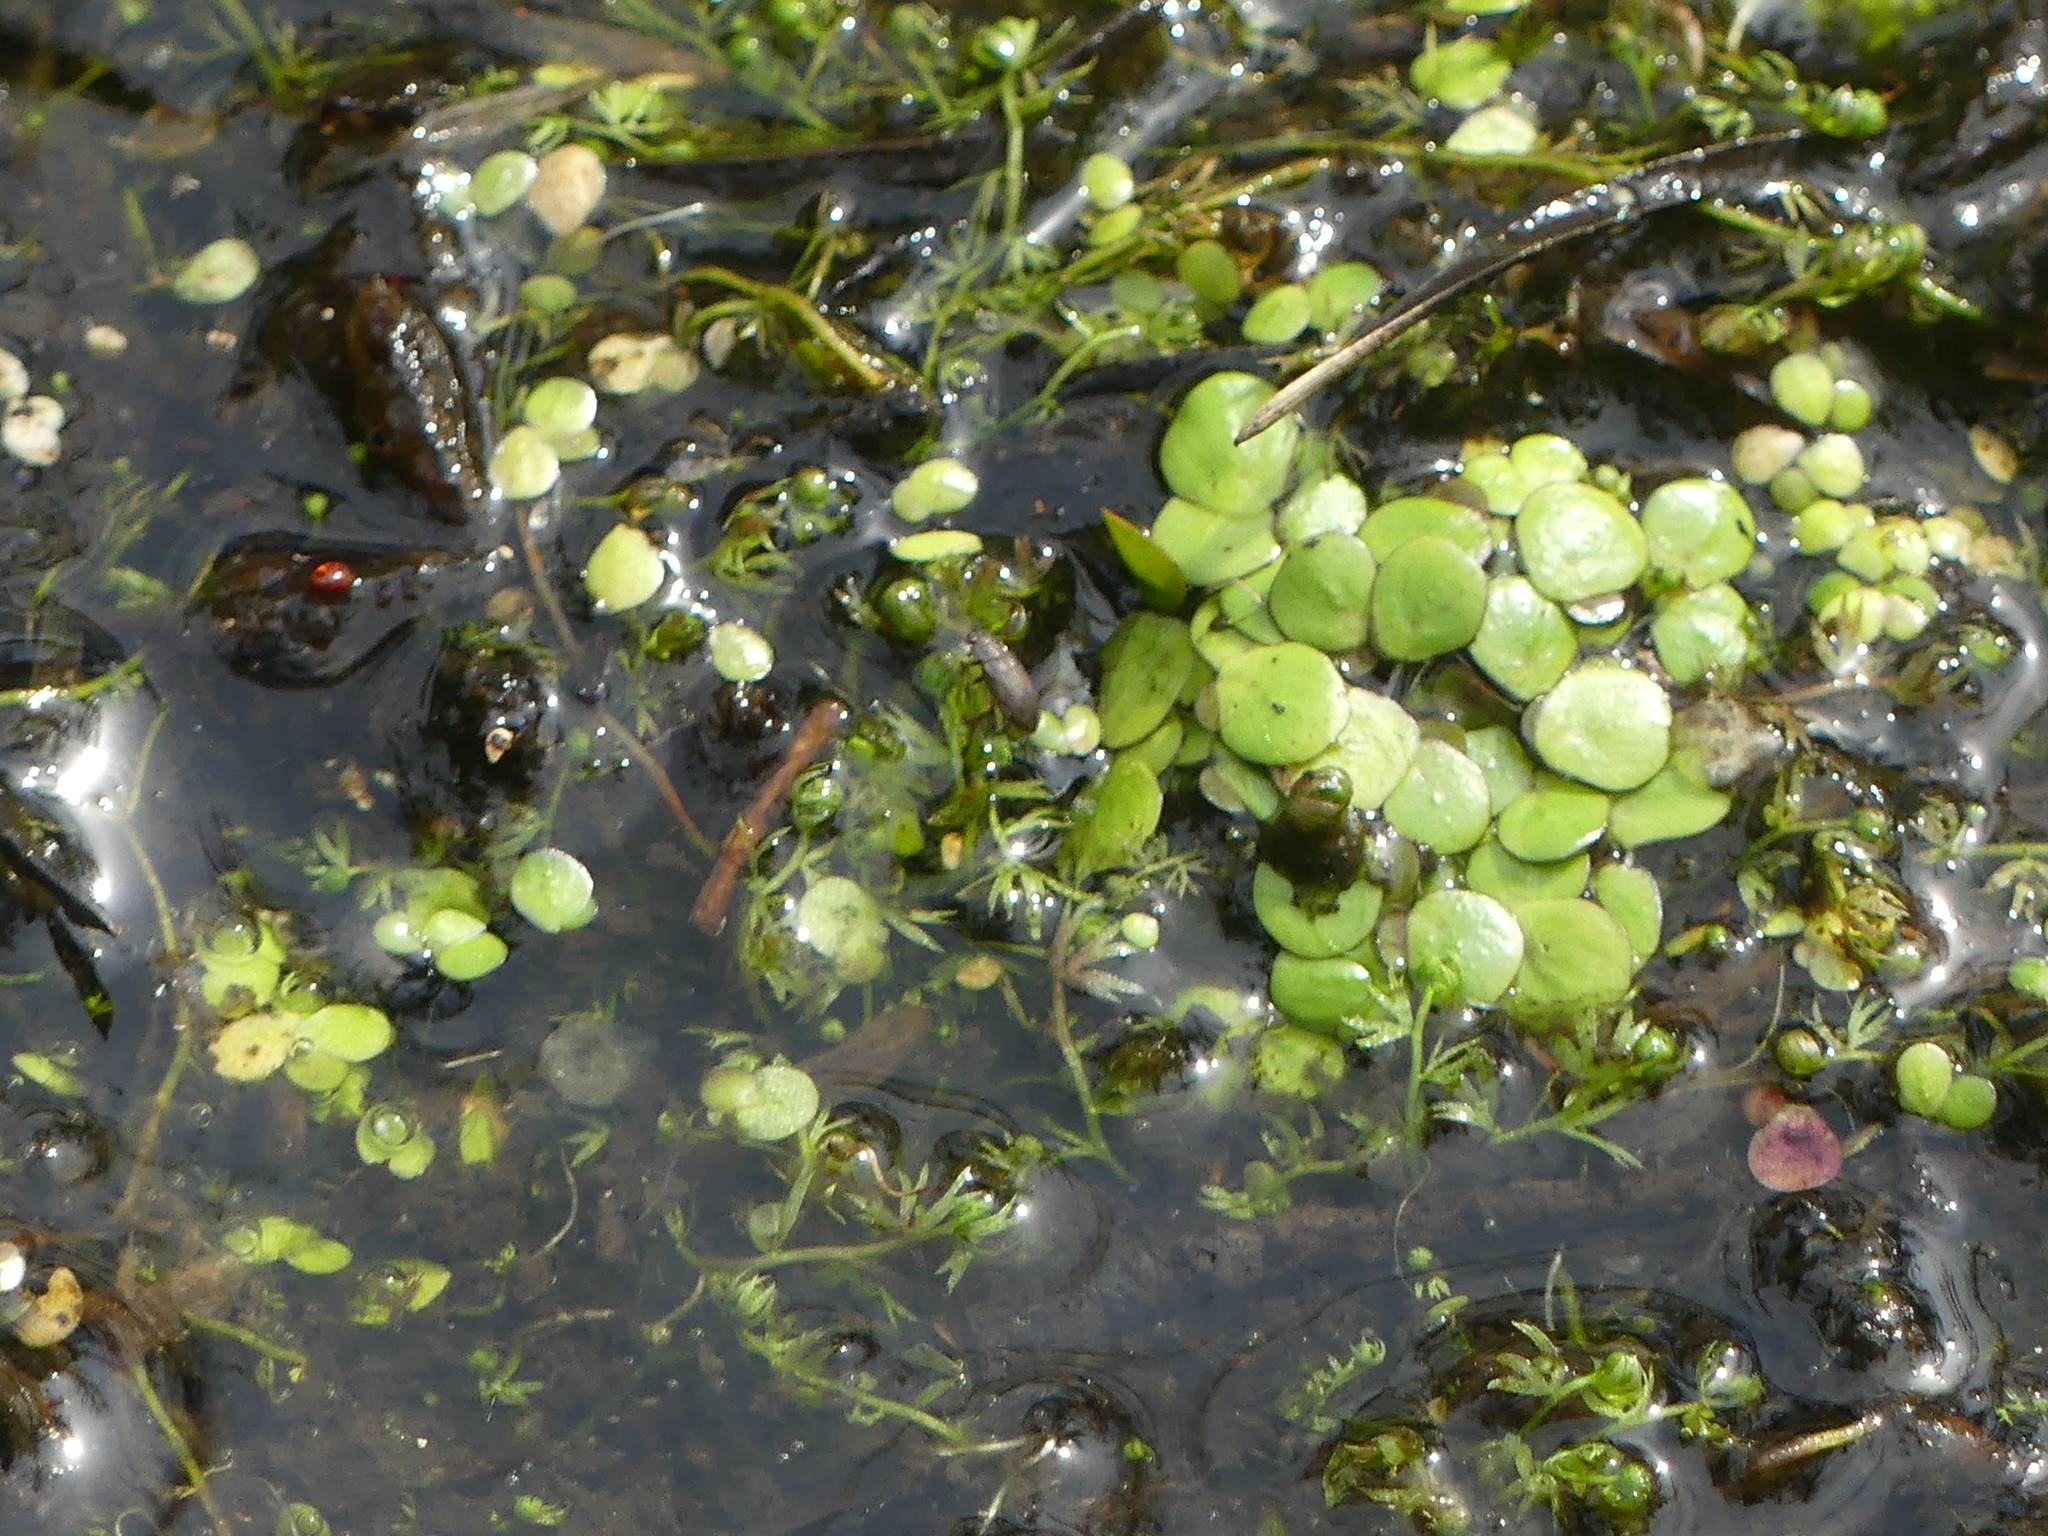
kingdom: Plantae
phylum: Tracheophyta
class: Liliopsida
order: Alismatales
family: Araceae
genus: Spirodela
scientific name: Spirodela polyrhiza
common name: Great duckweed
